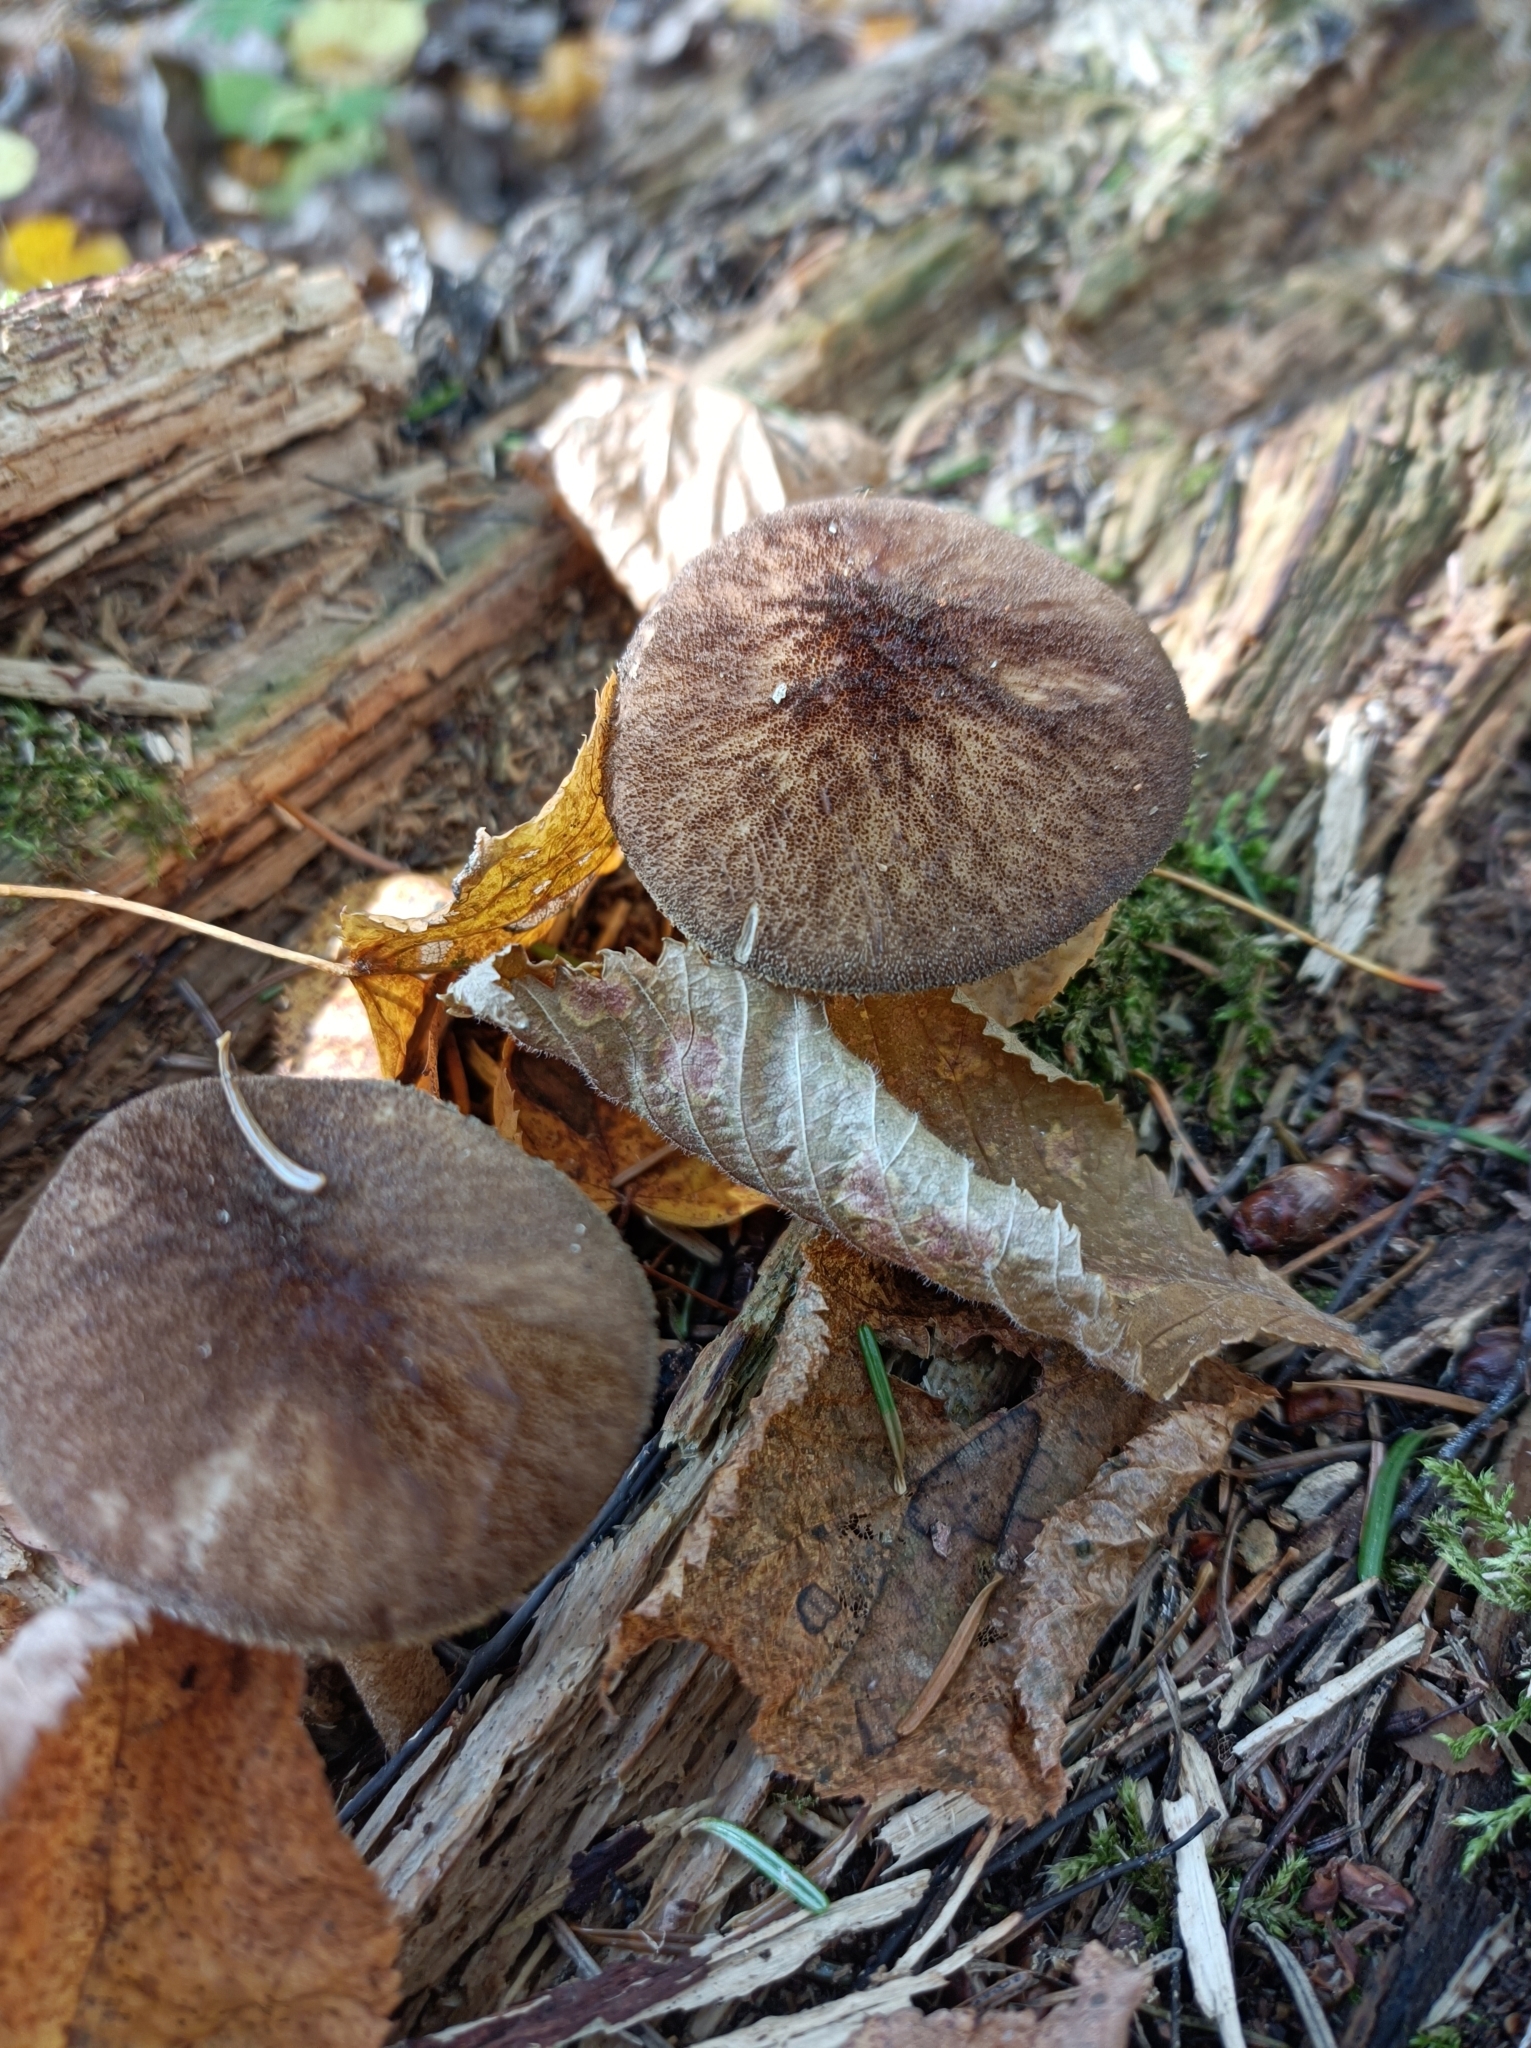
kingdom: Fungi
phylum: Basidiomycota
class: Agaricomycetes
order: Agaricales
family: Pluteaceae
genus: Pluteus
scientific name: Pluteus umbrosus
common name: Velvet shield
